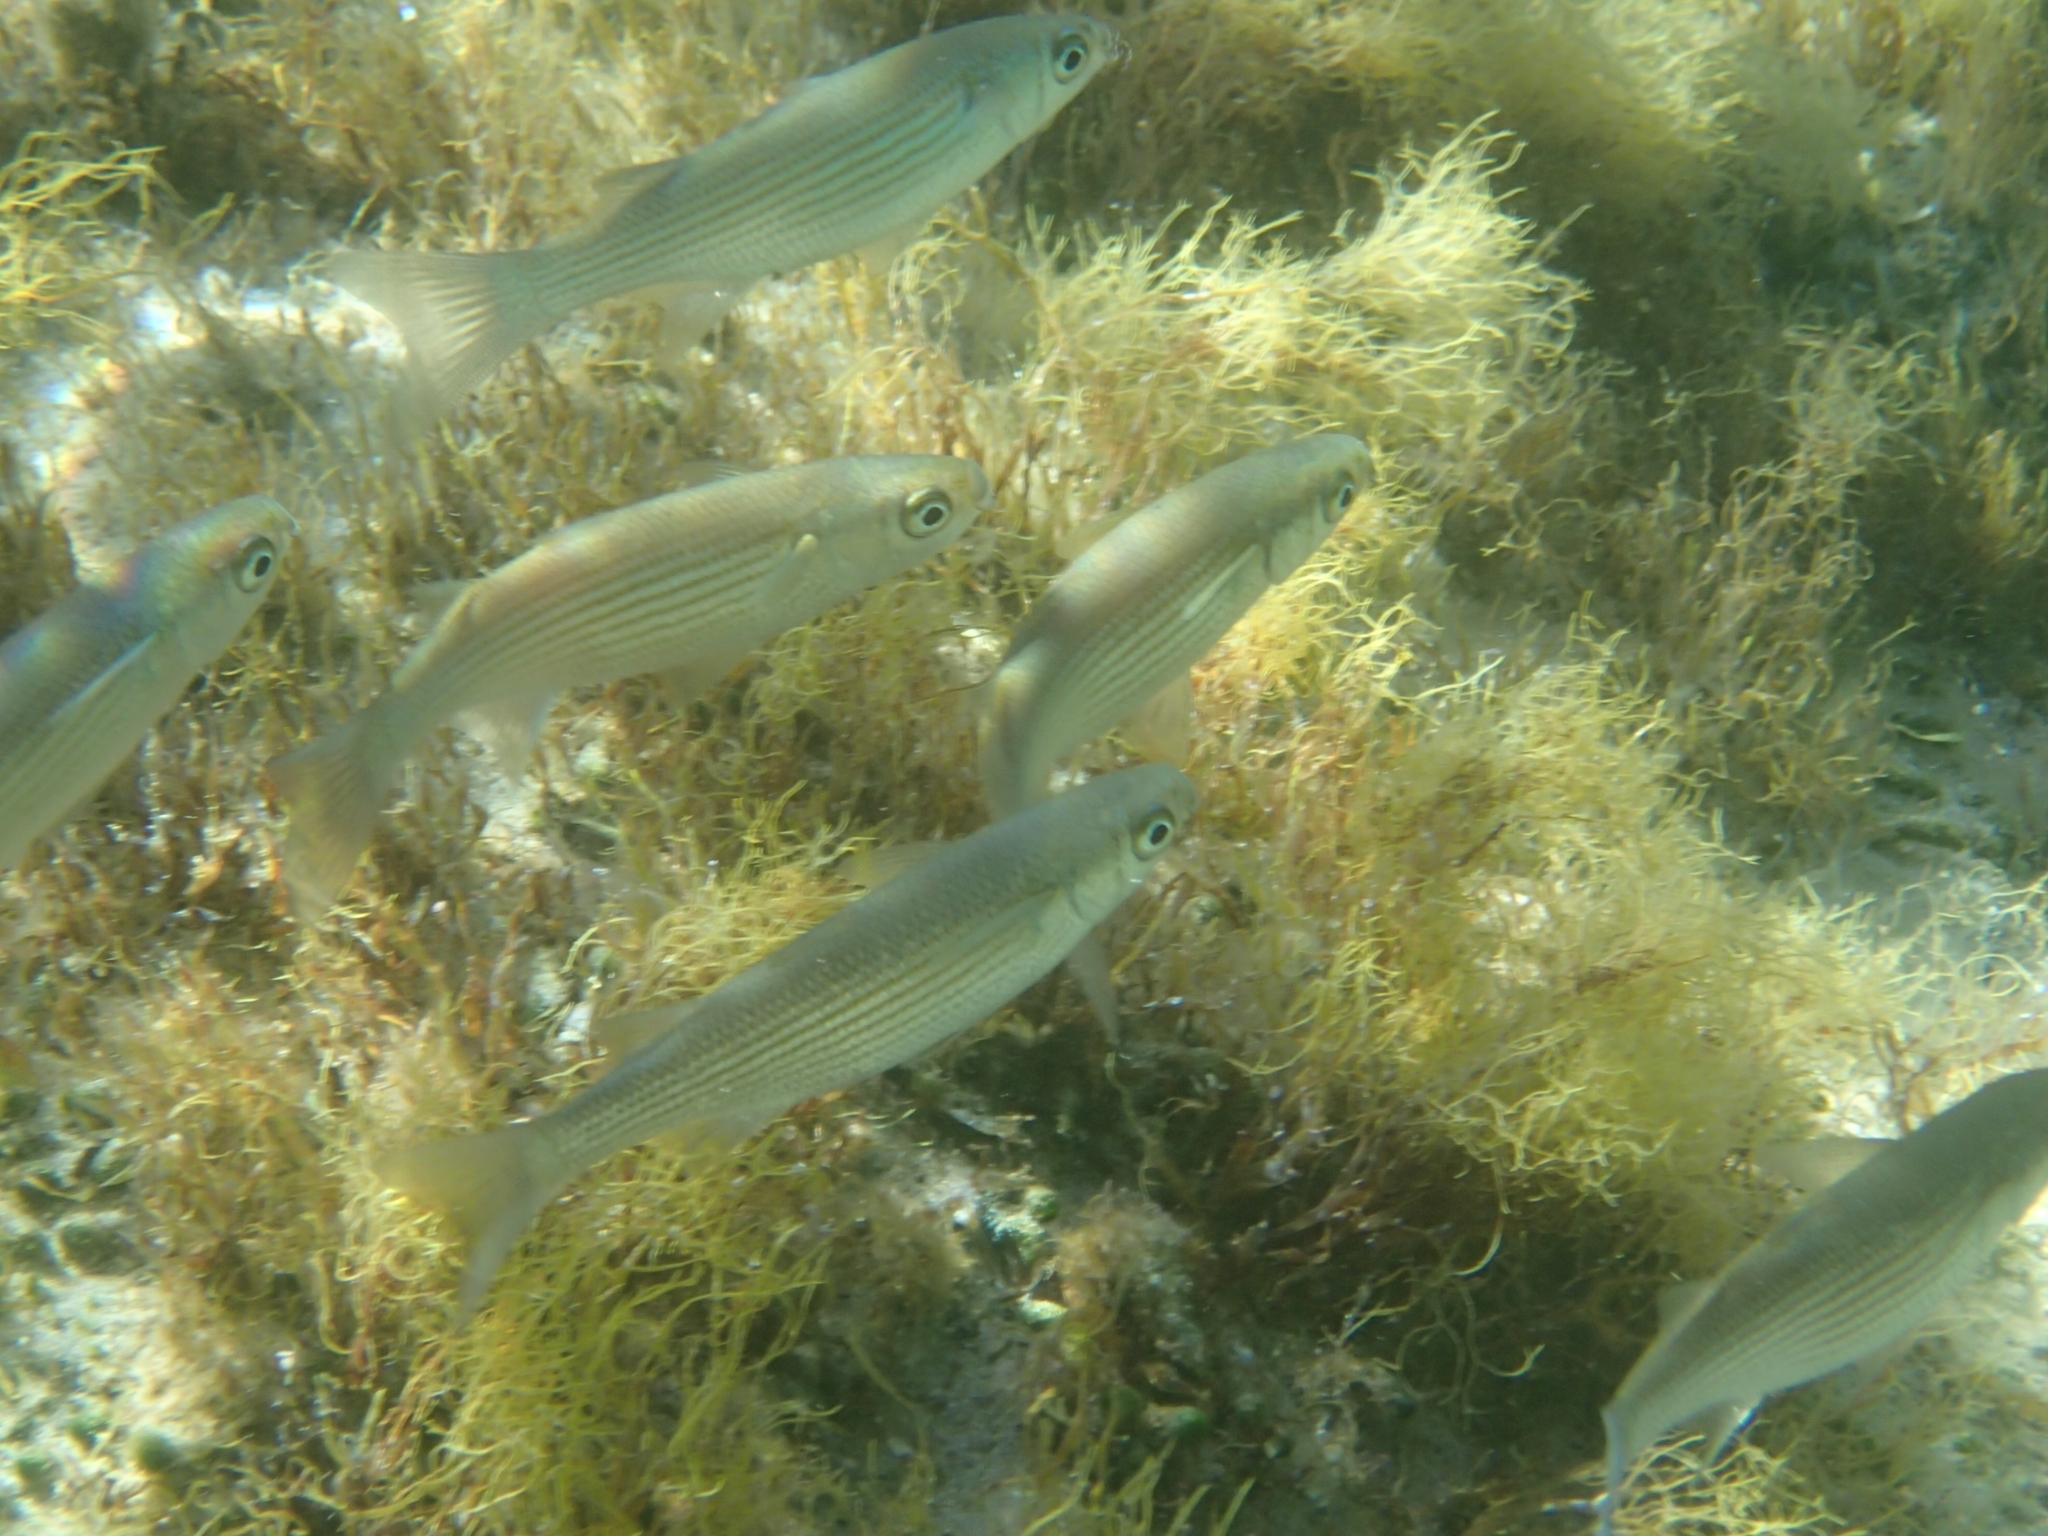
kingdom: Animalia
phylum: Chordata
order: Mugiliformes
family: Mugilidae
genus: Oedalechilus
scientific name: Oedalechilus labeo
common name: Boxlip mullet
